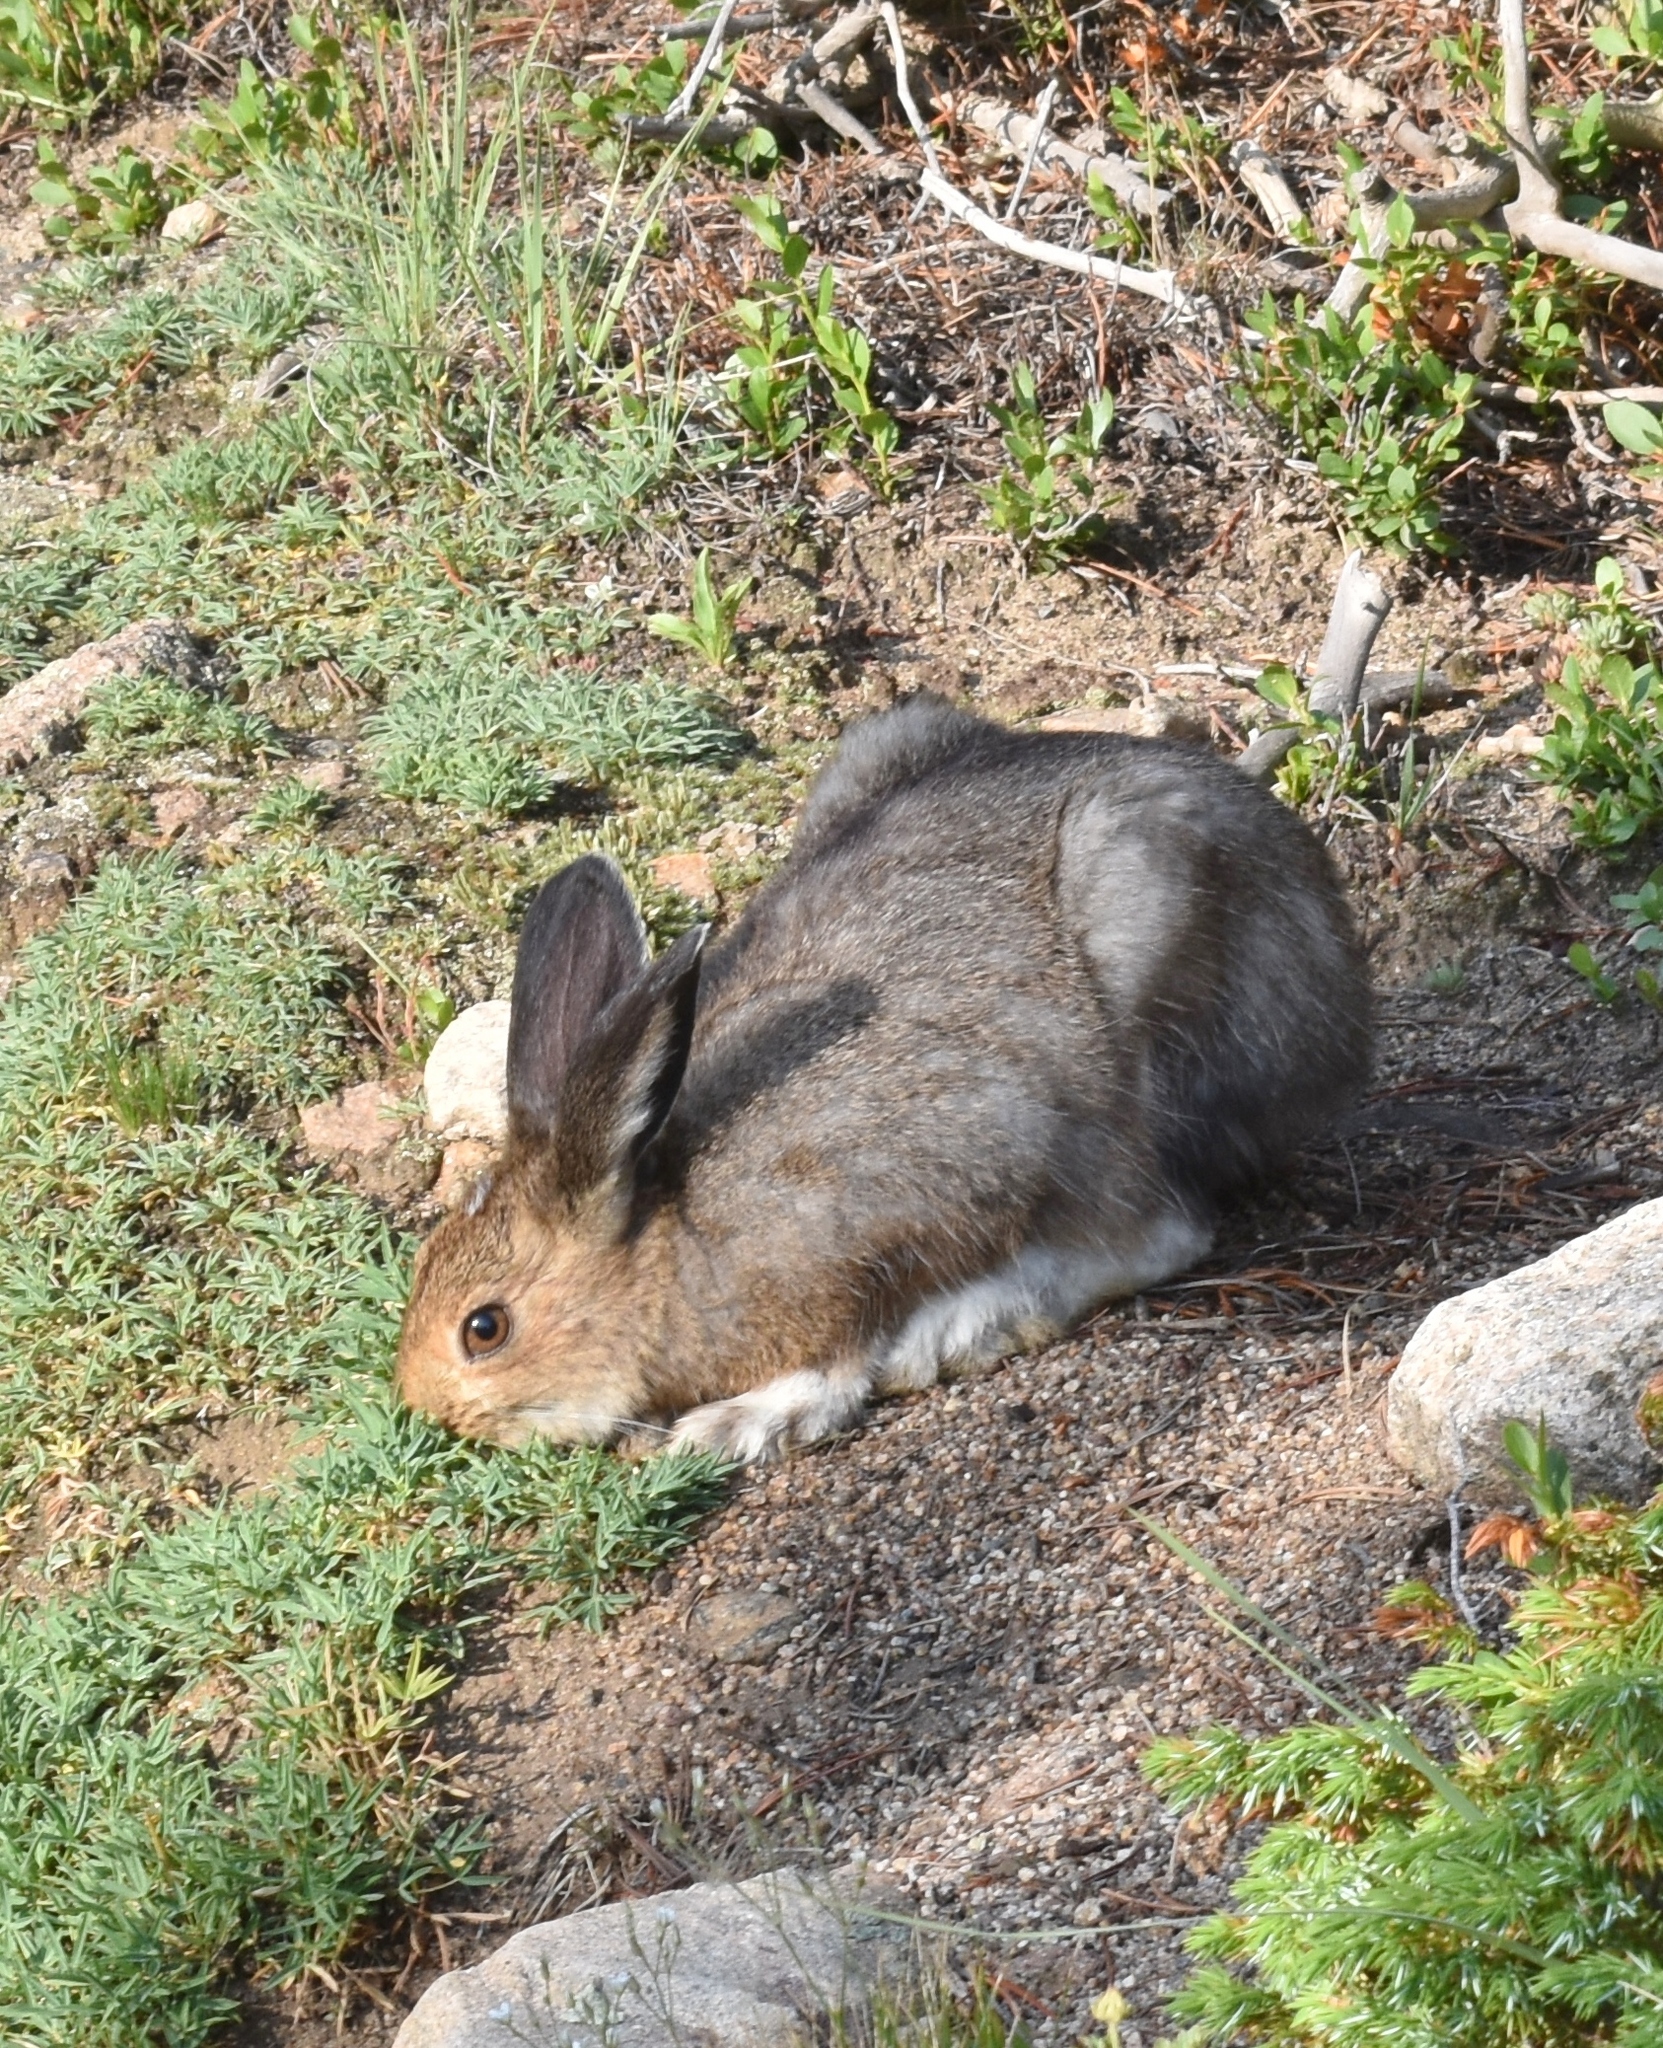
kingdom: Animalia
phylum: Chordata
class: Mammalia
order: Lagomorpha
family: Leporidae
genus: Lepus
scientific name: Lepus americanus
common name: Snowshoe hare
